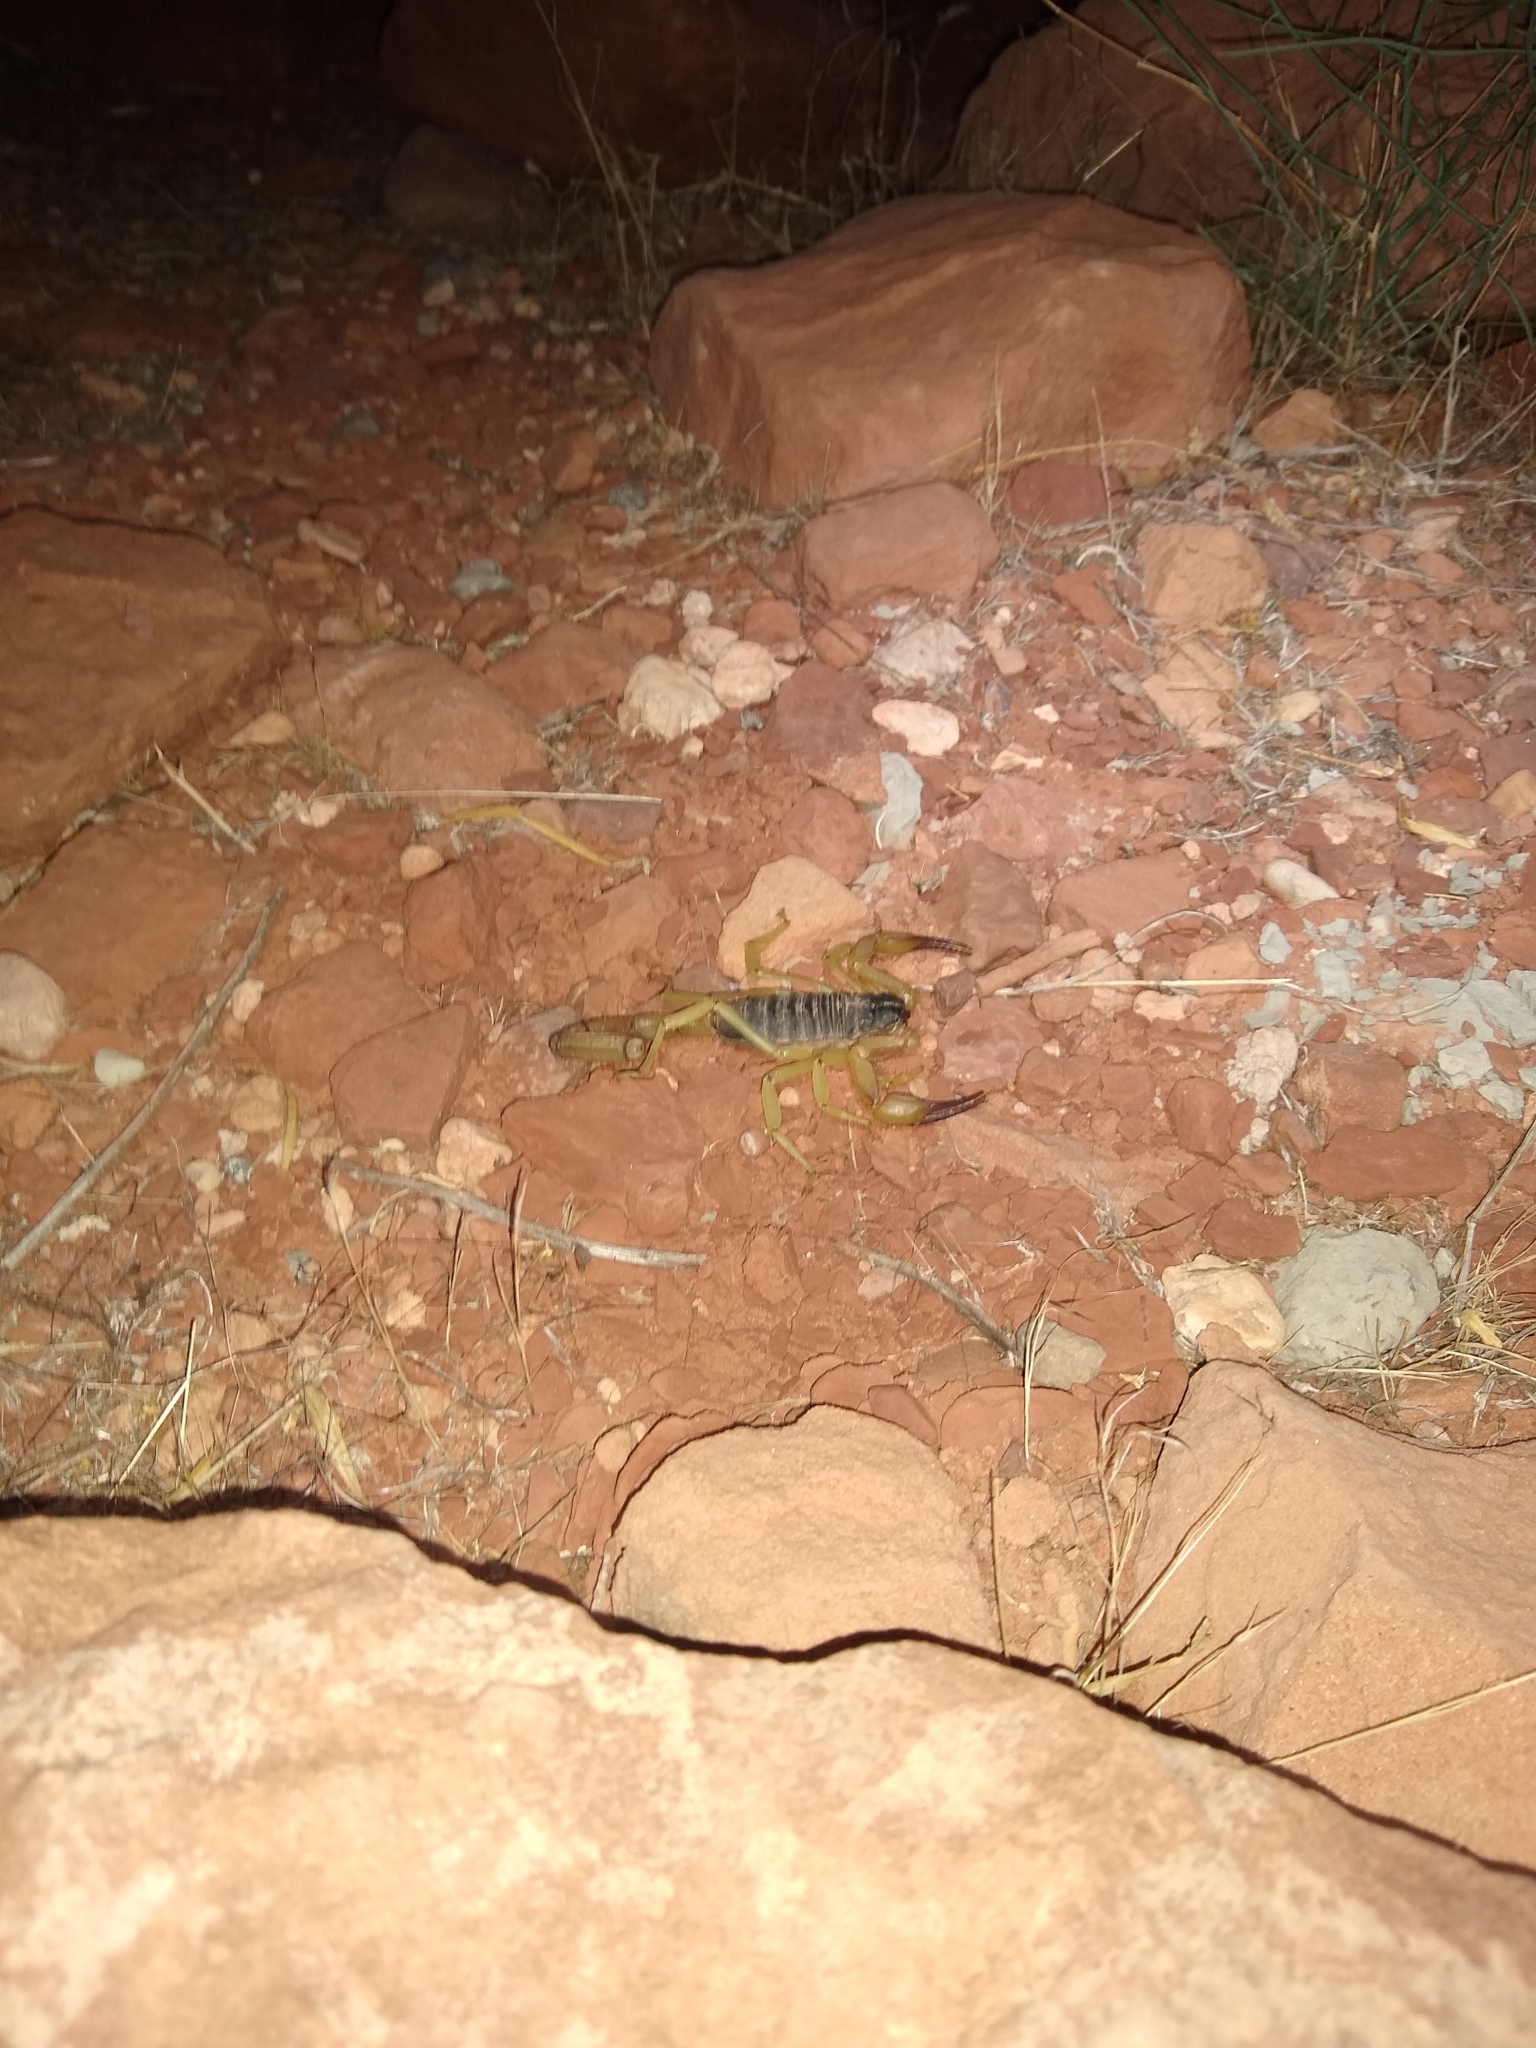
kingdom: Animalia
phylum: Arthropoda
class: Arachnida
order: Scorpiones
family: Hadruridae
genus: Hadrurus
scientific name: Hadrurus spadix
